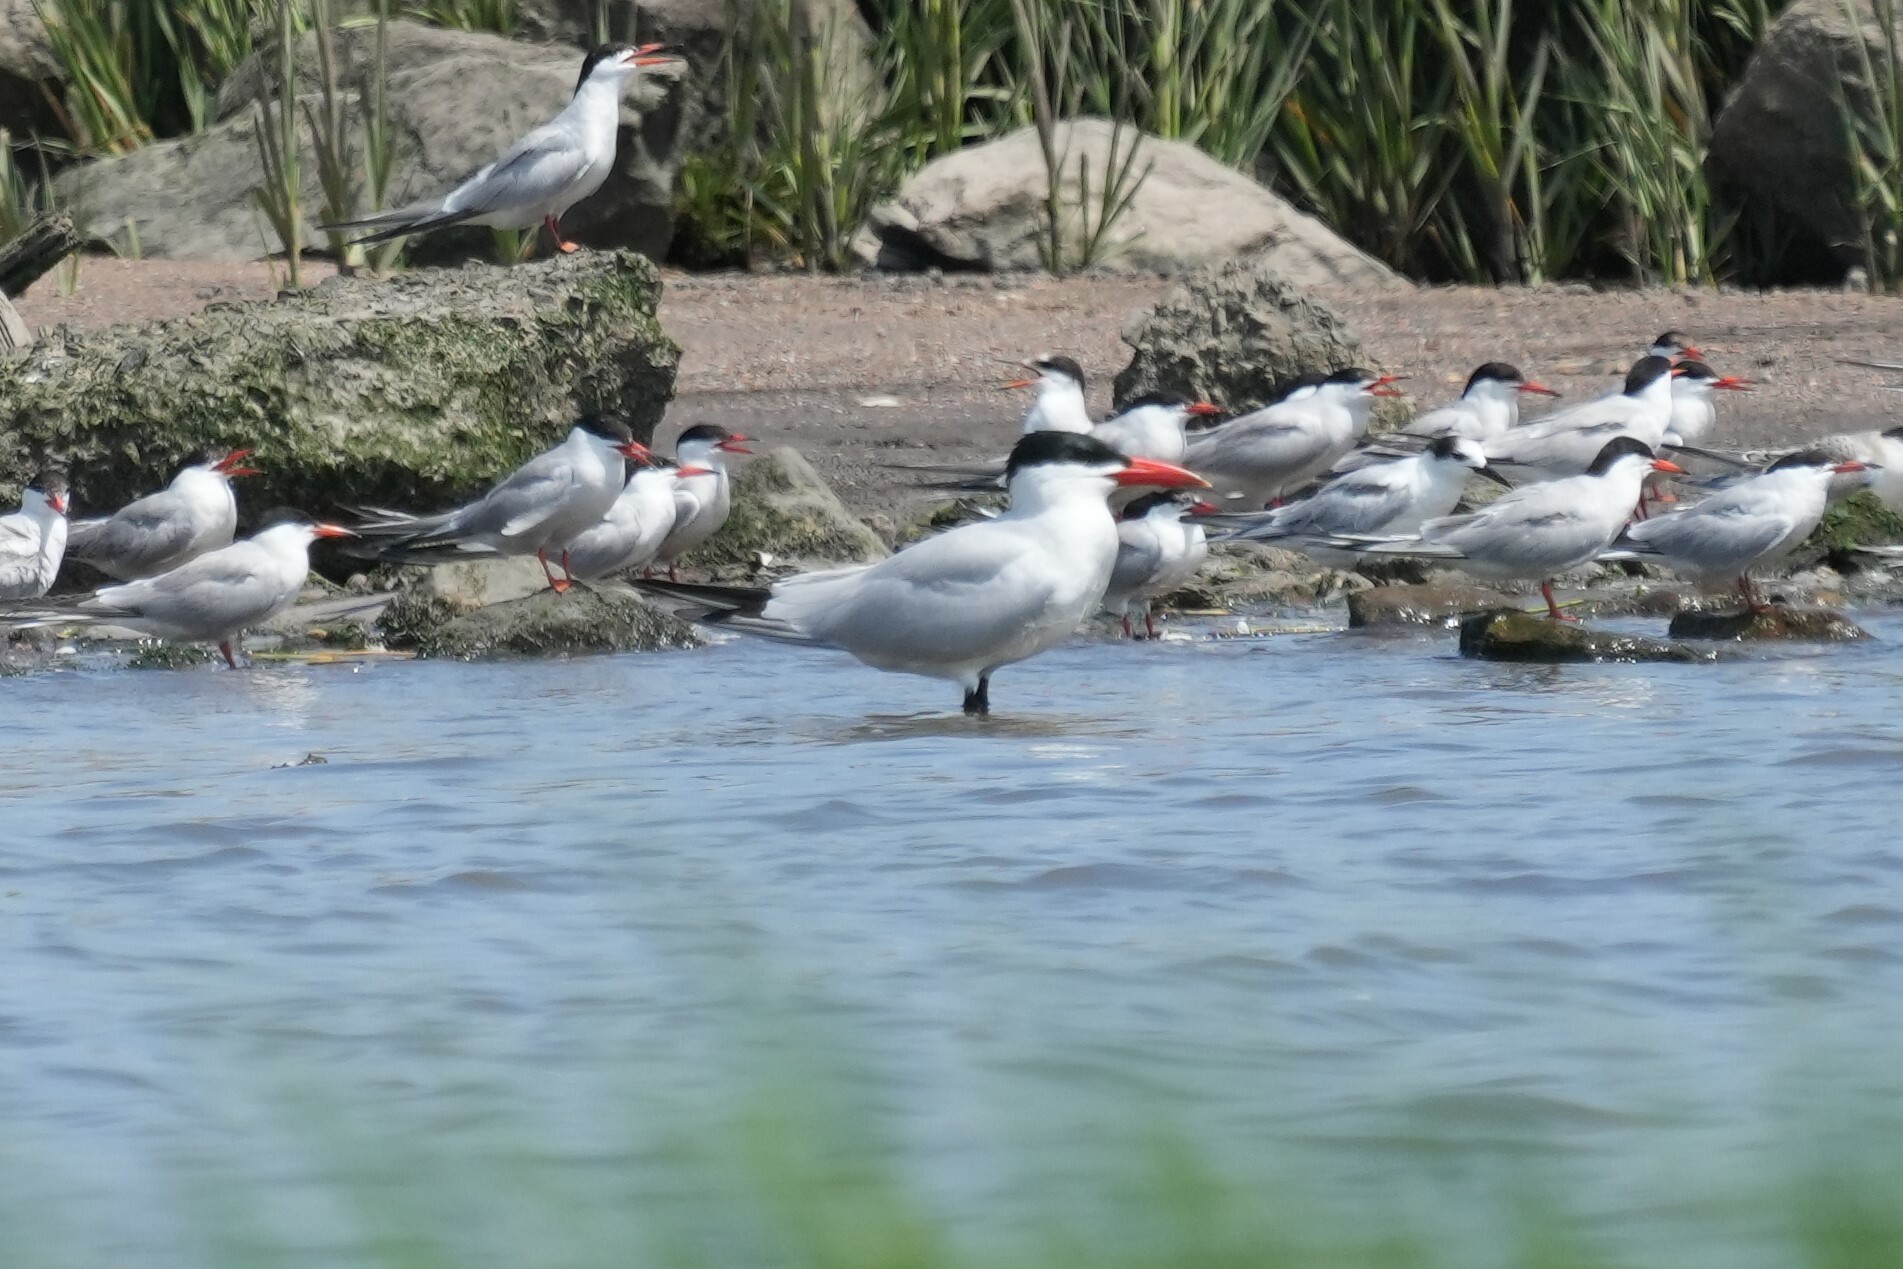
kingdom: Animalia
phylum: Chordata
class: Aves
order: Charadriiformes
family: Laridae
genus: Hydroprogne
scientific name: Hydroprogne caspia
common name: Caspian tern
